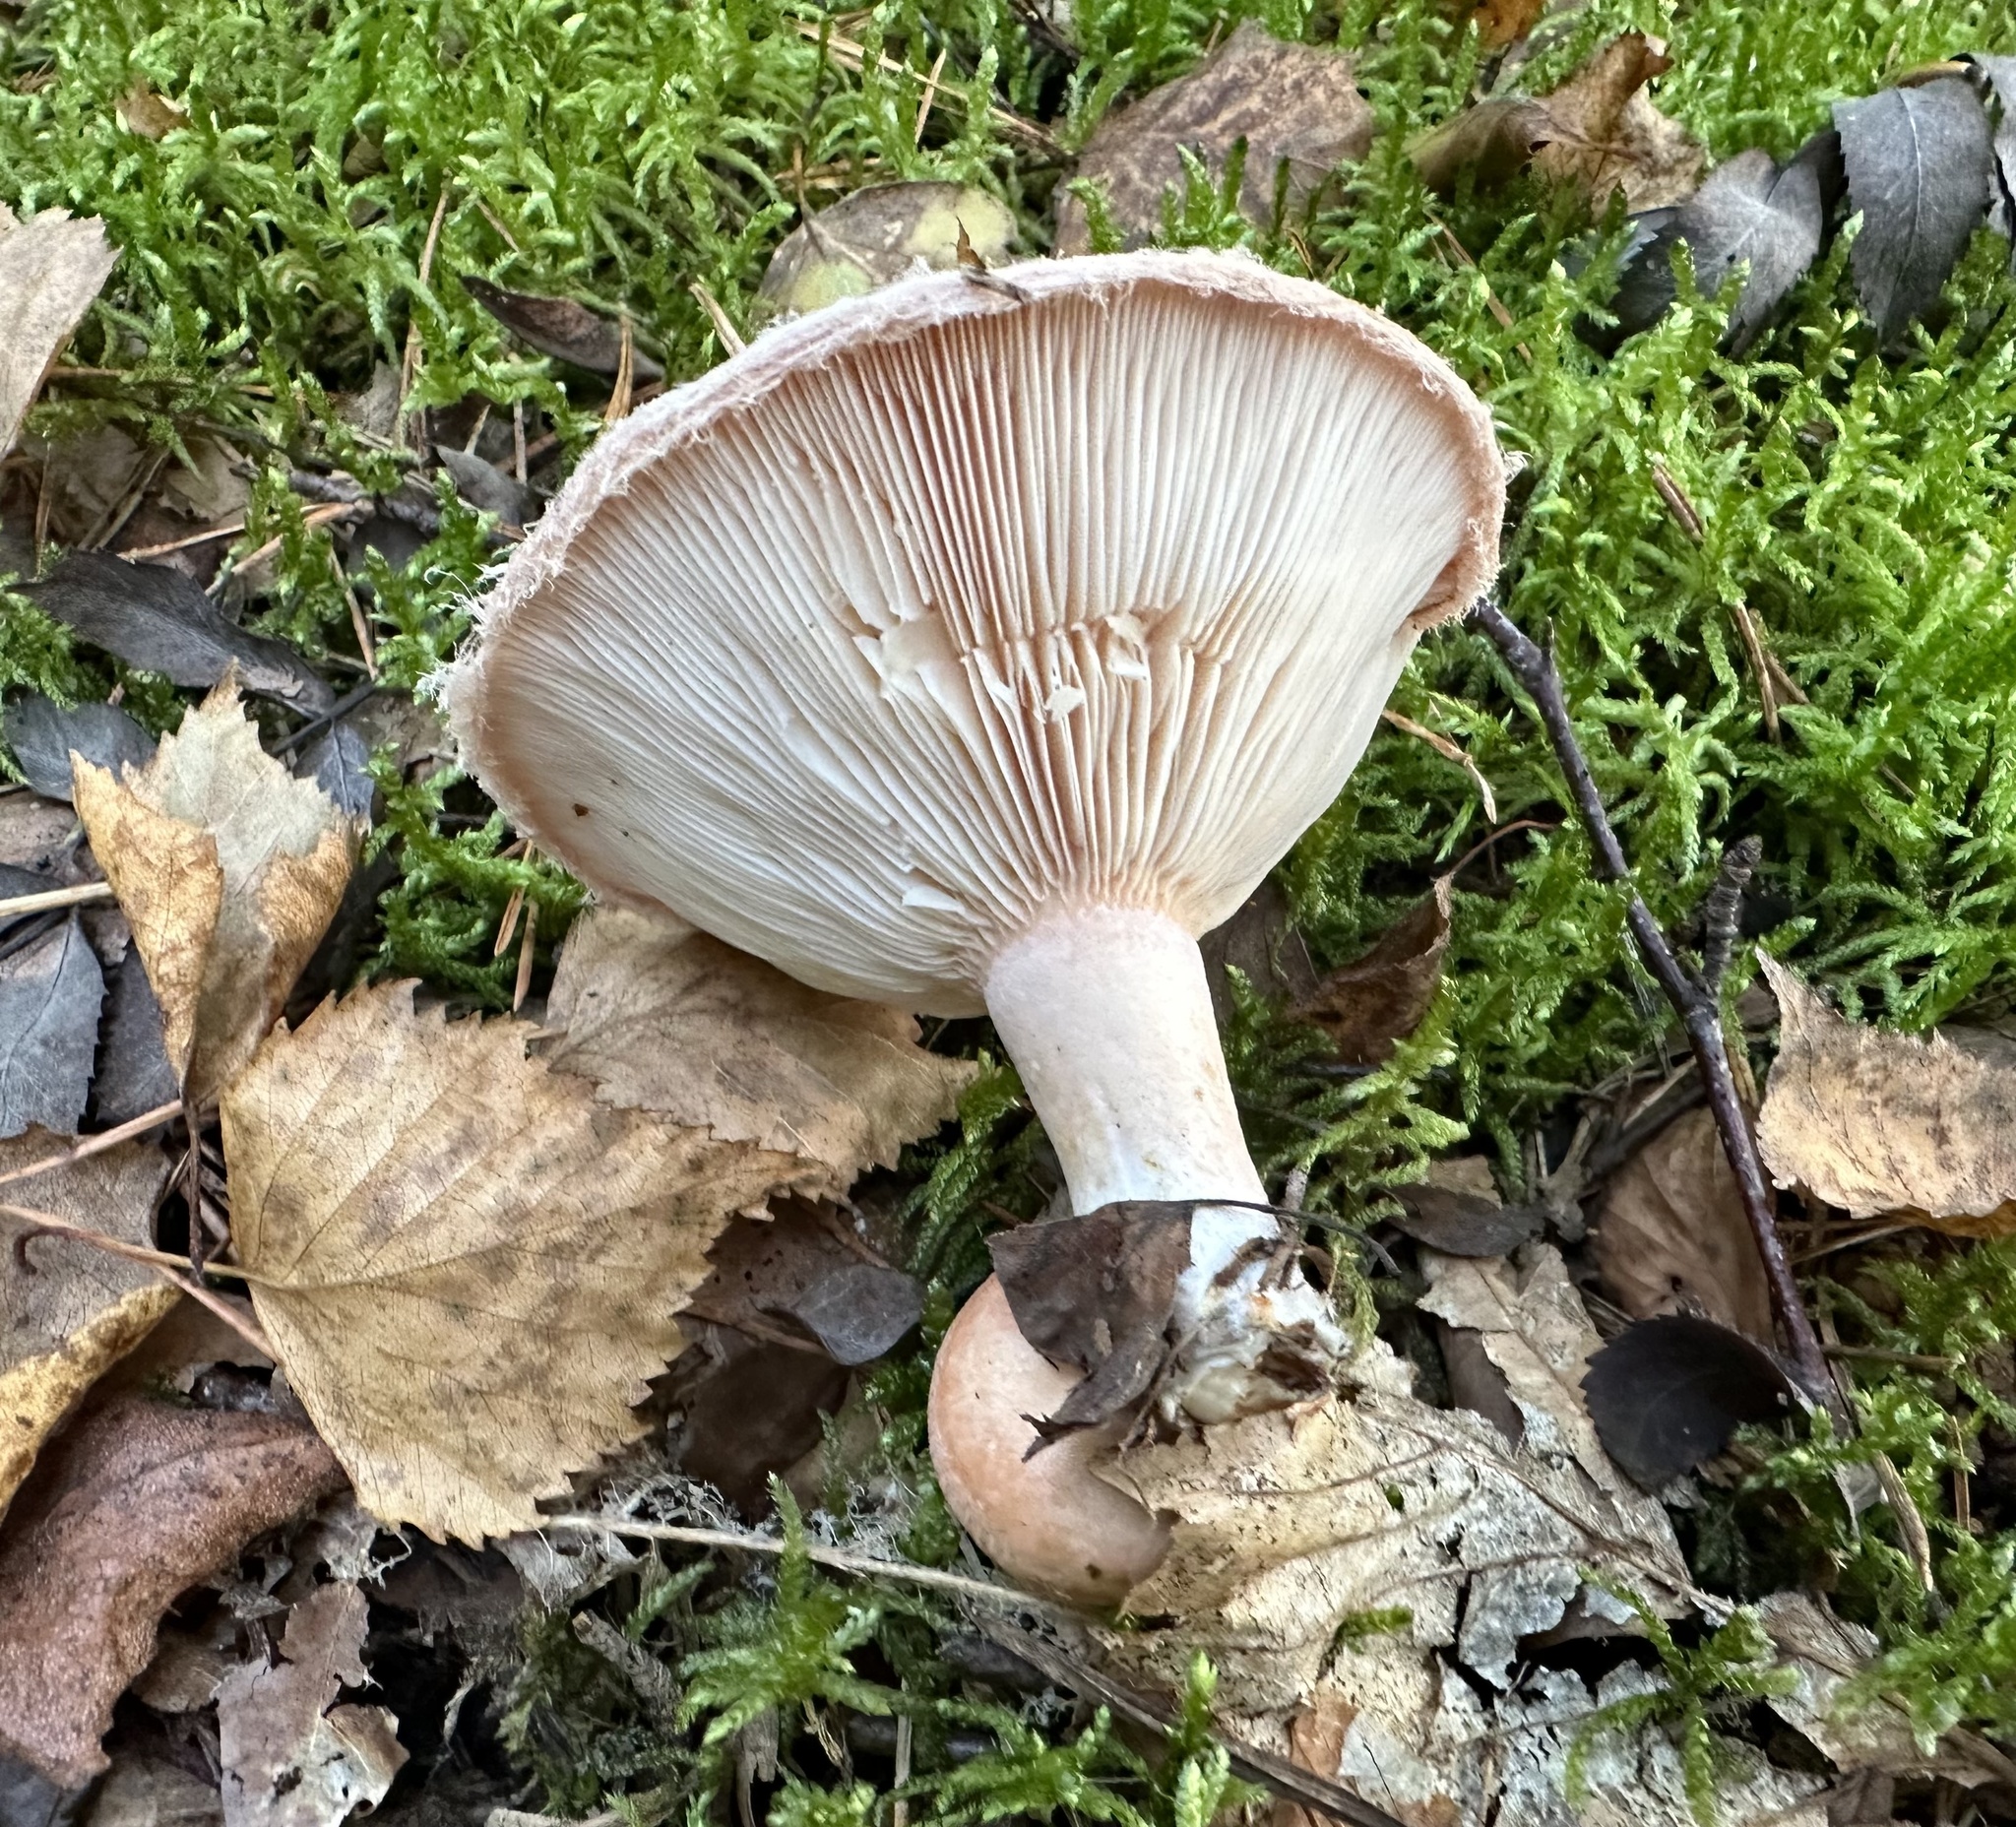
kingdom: Fungi
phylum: Basidiomycota
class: Agaricomycetes
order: Russulales
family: Russulaceae
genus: Lactarius
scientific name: Lactarius torminosus
